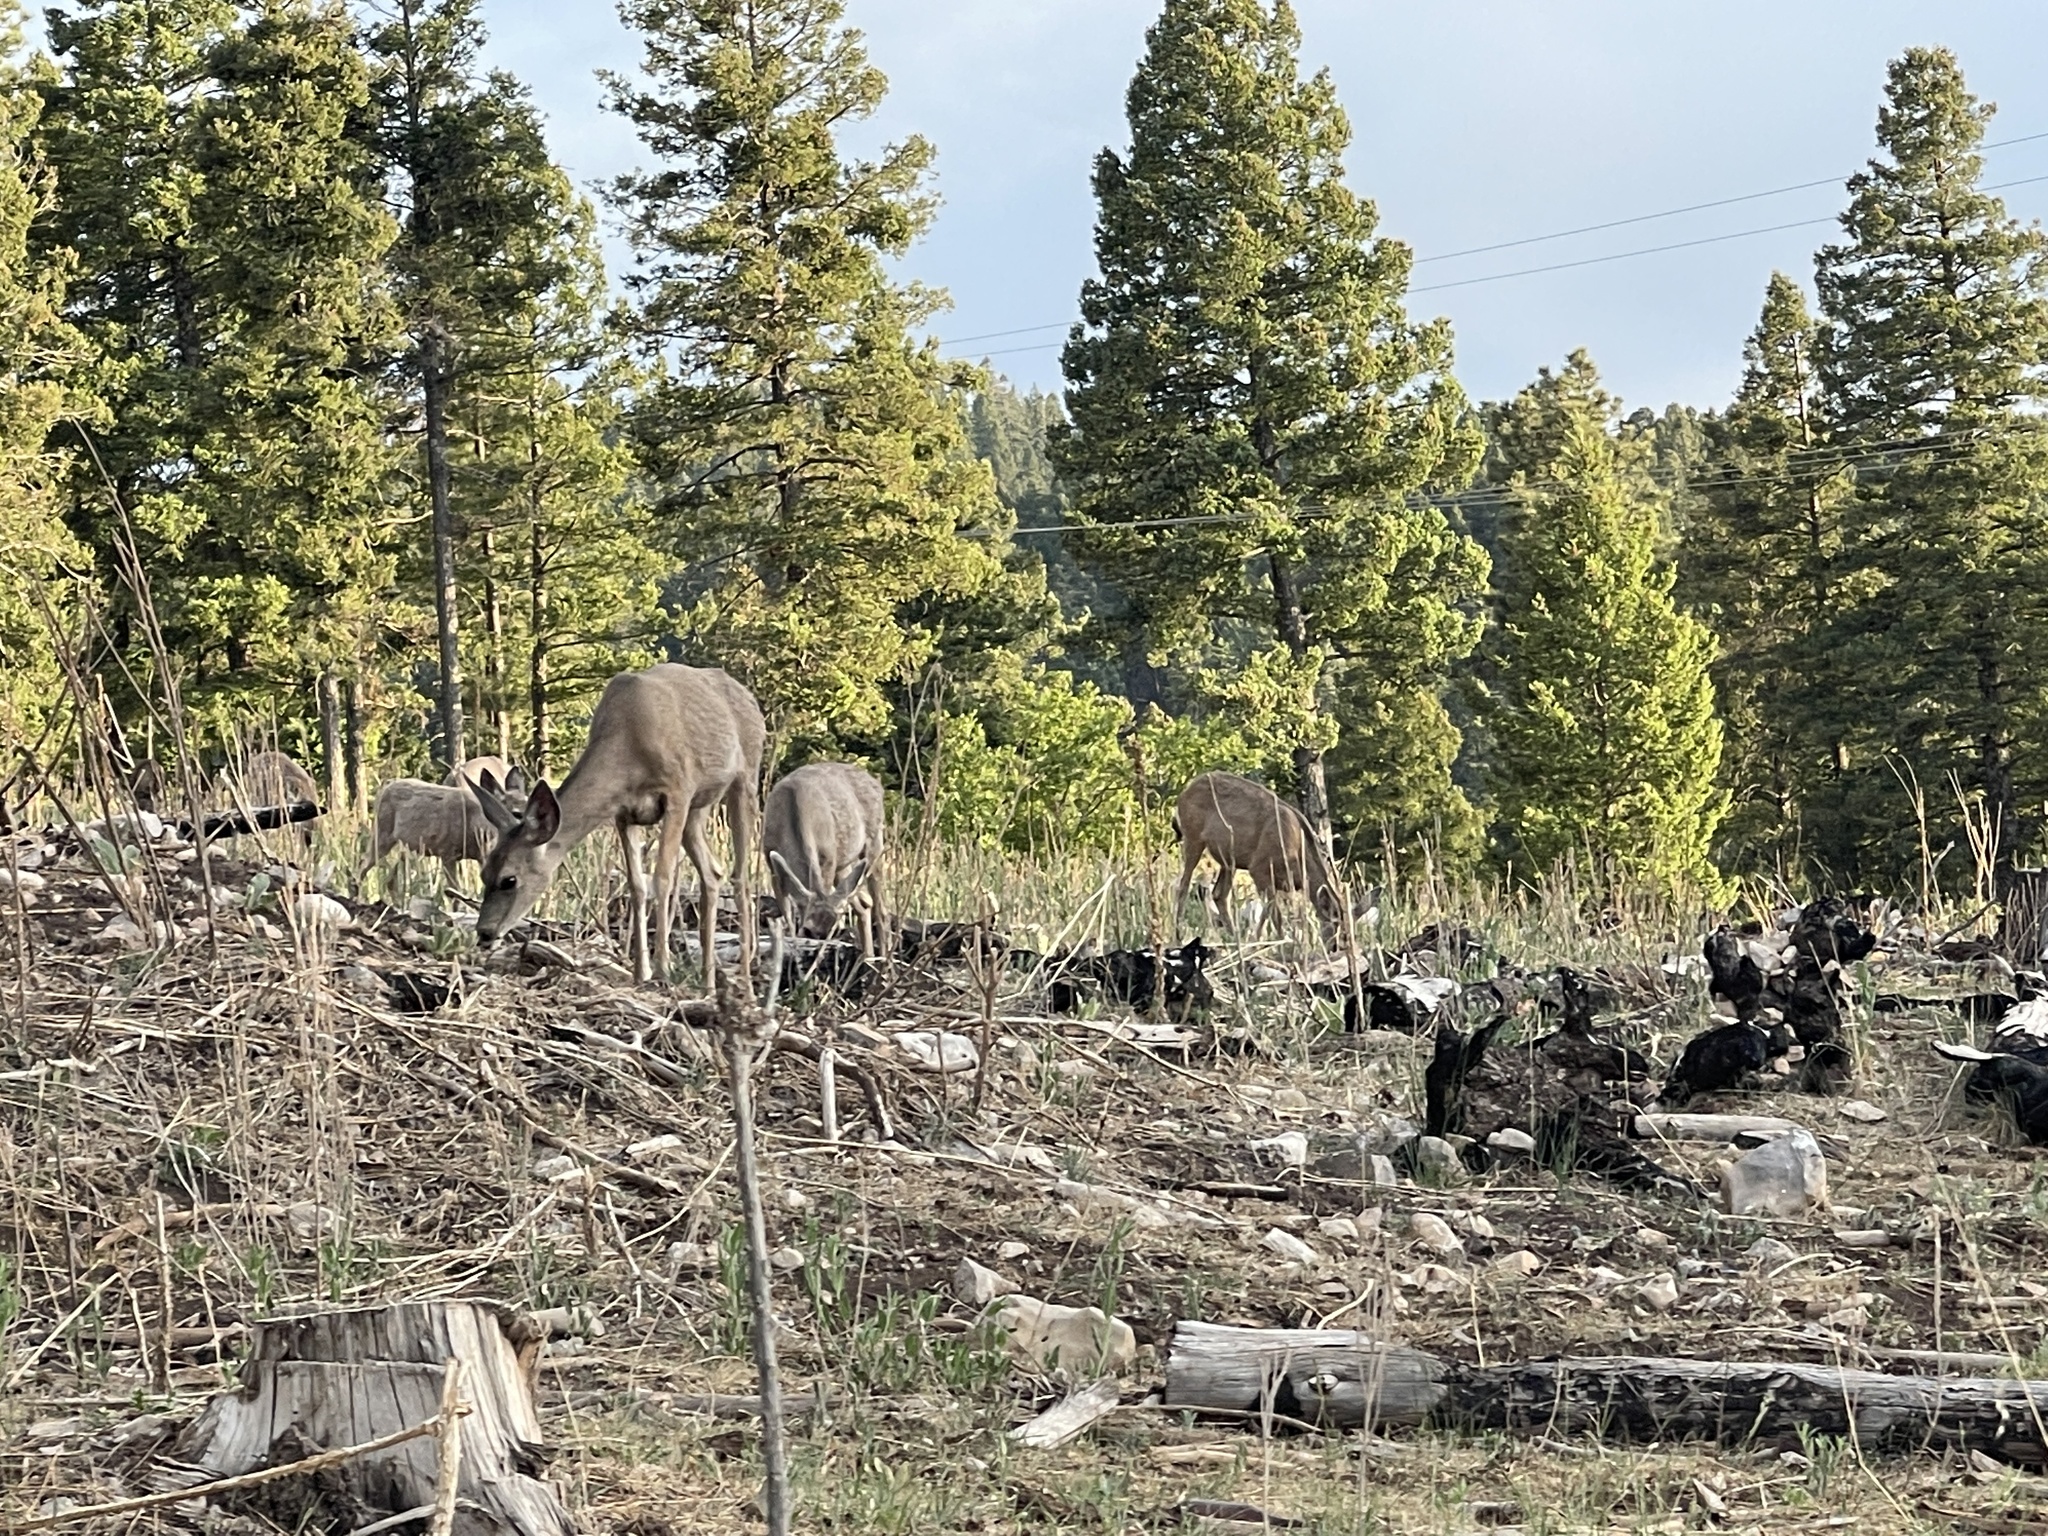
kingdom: Animalia
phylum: Chordata
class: Mammalia
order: Artiodactyla
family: Cervidae
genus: Odocoileus
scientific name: Odocoileus hemionus
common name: Mule deer
